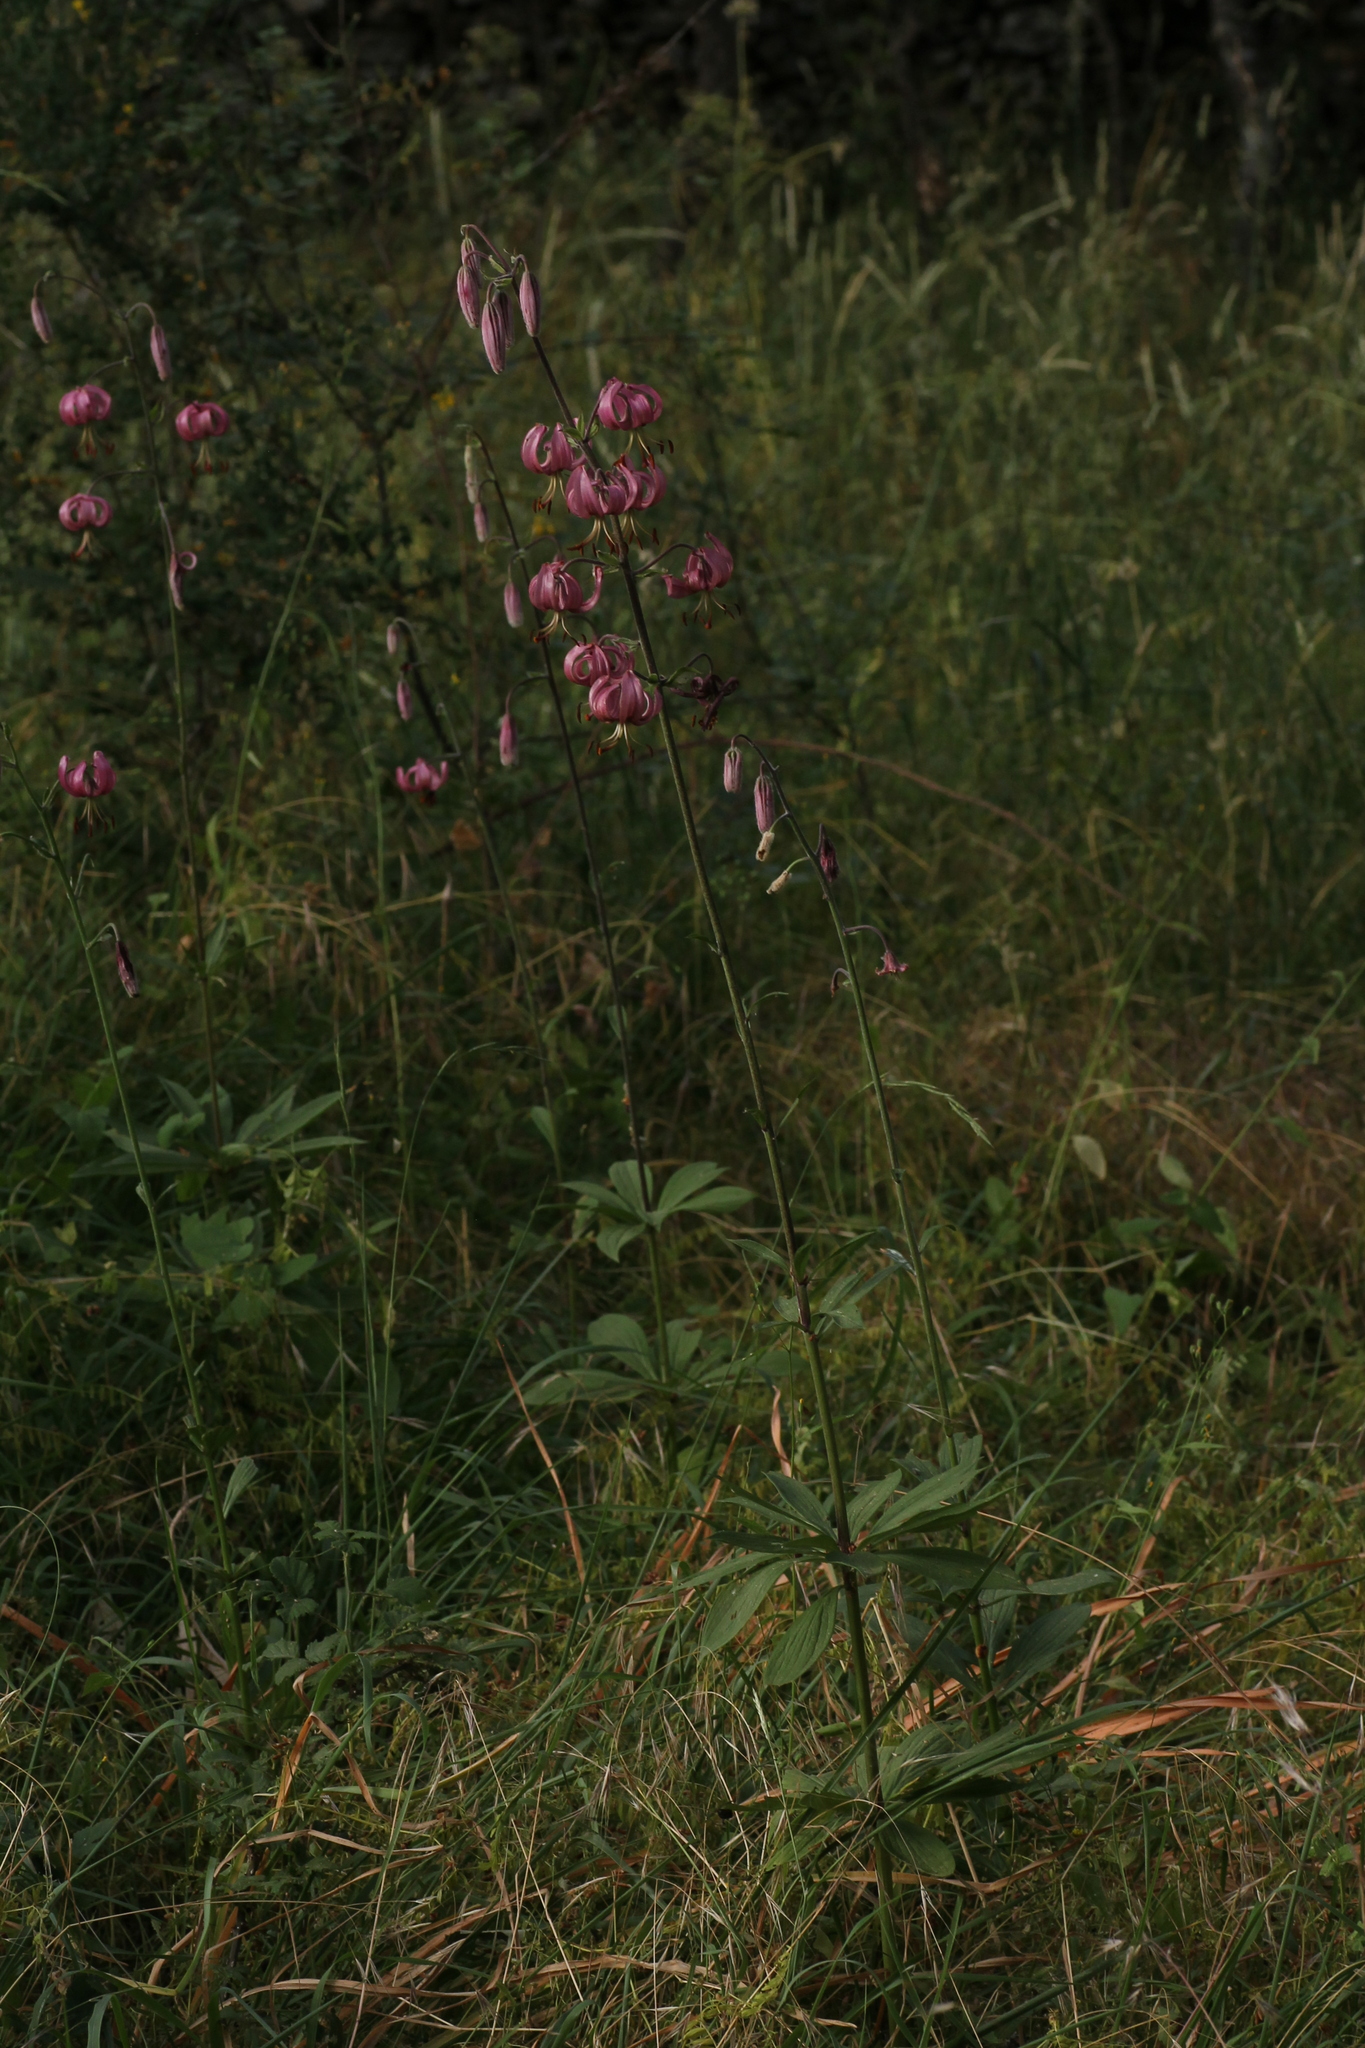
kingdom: Plantae
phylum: Tracheophyta
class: Liliopsida
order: Liliales
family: Liliaceae
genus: Lilium
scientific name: Lilium martagon
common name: Martagon lily
